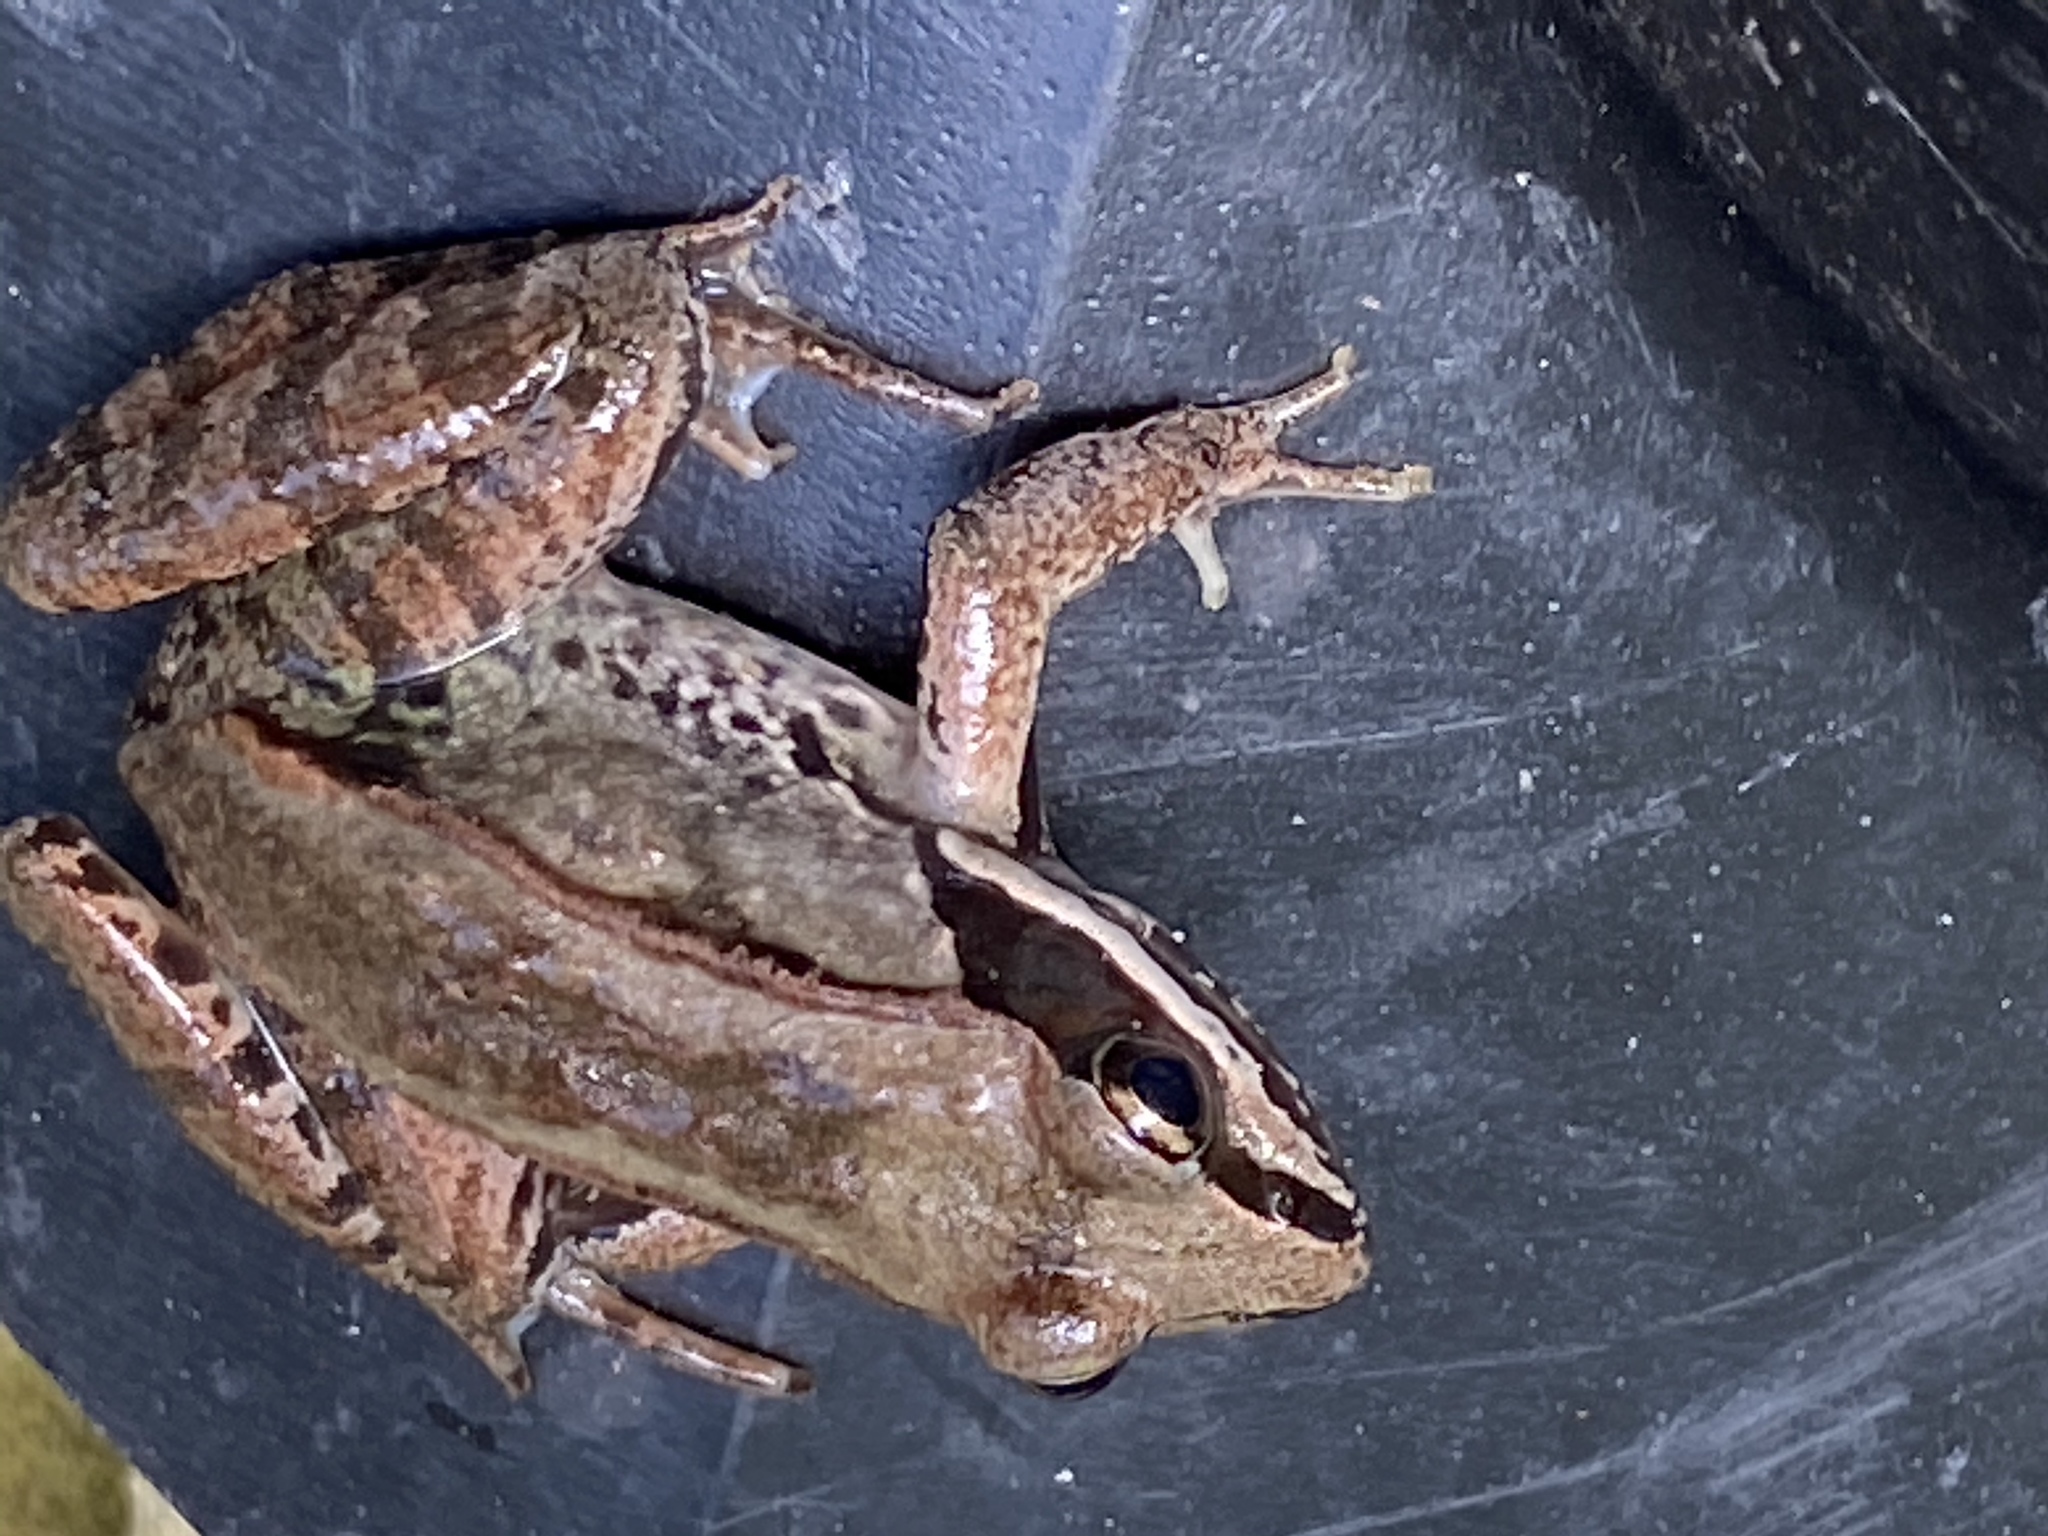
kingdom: Animalia
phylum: Chordata
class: Amphibia
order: Anura
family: Ranidae
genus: Lithobates
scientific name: Lithobates sylvaticus
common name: Wood frog
